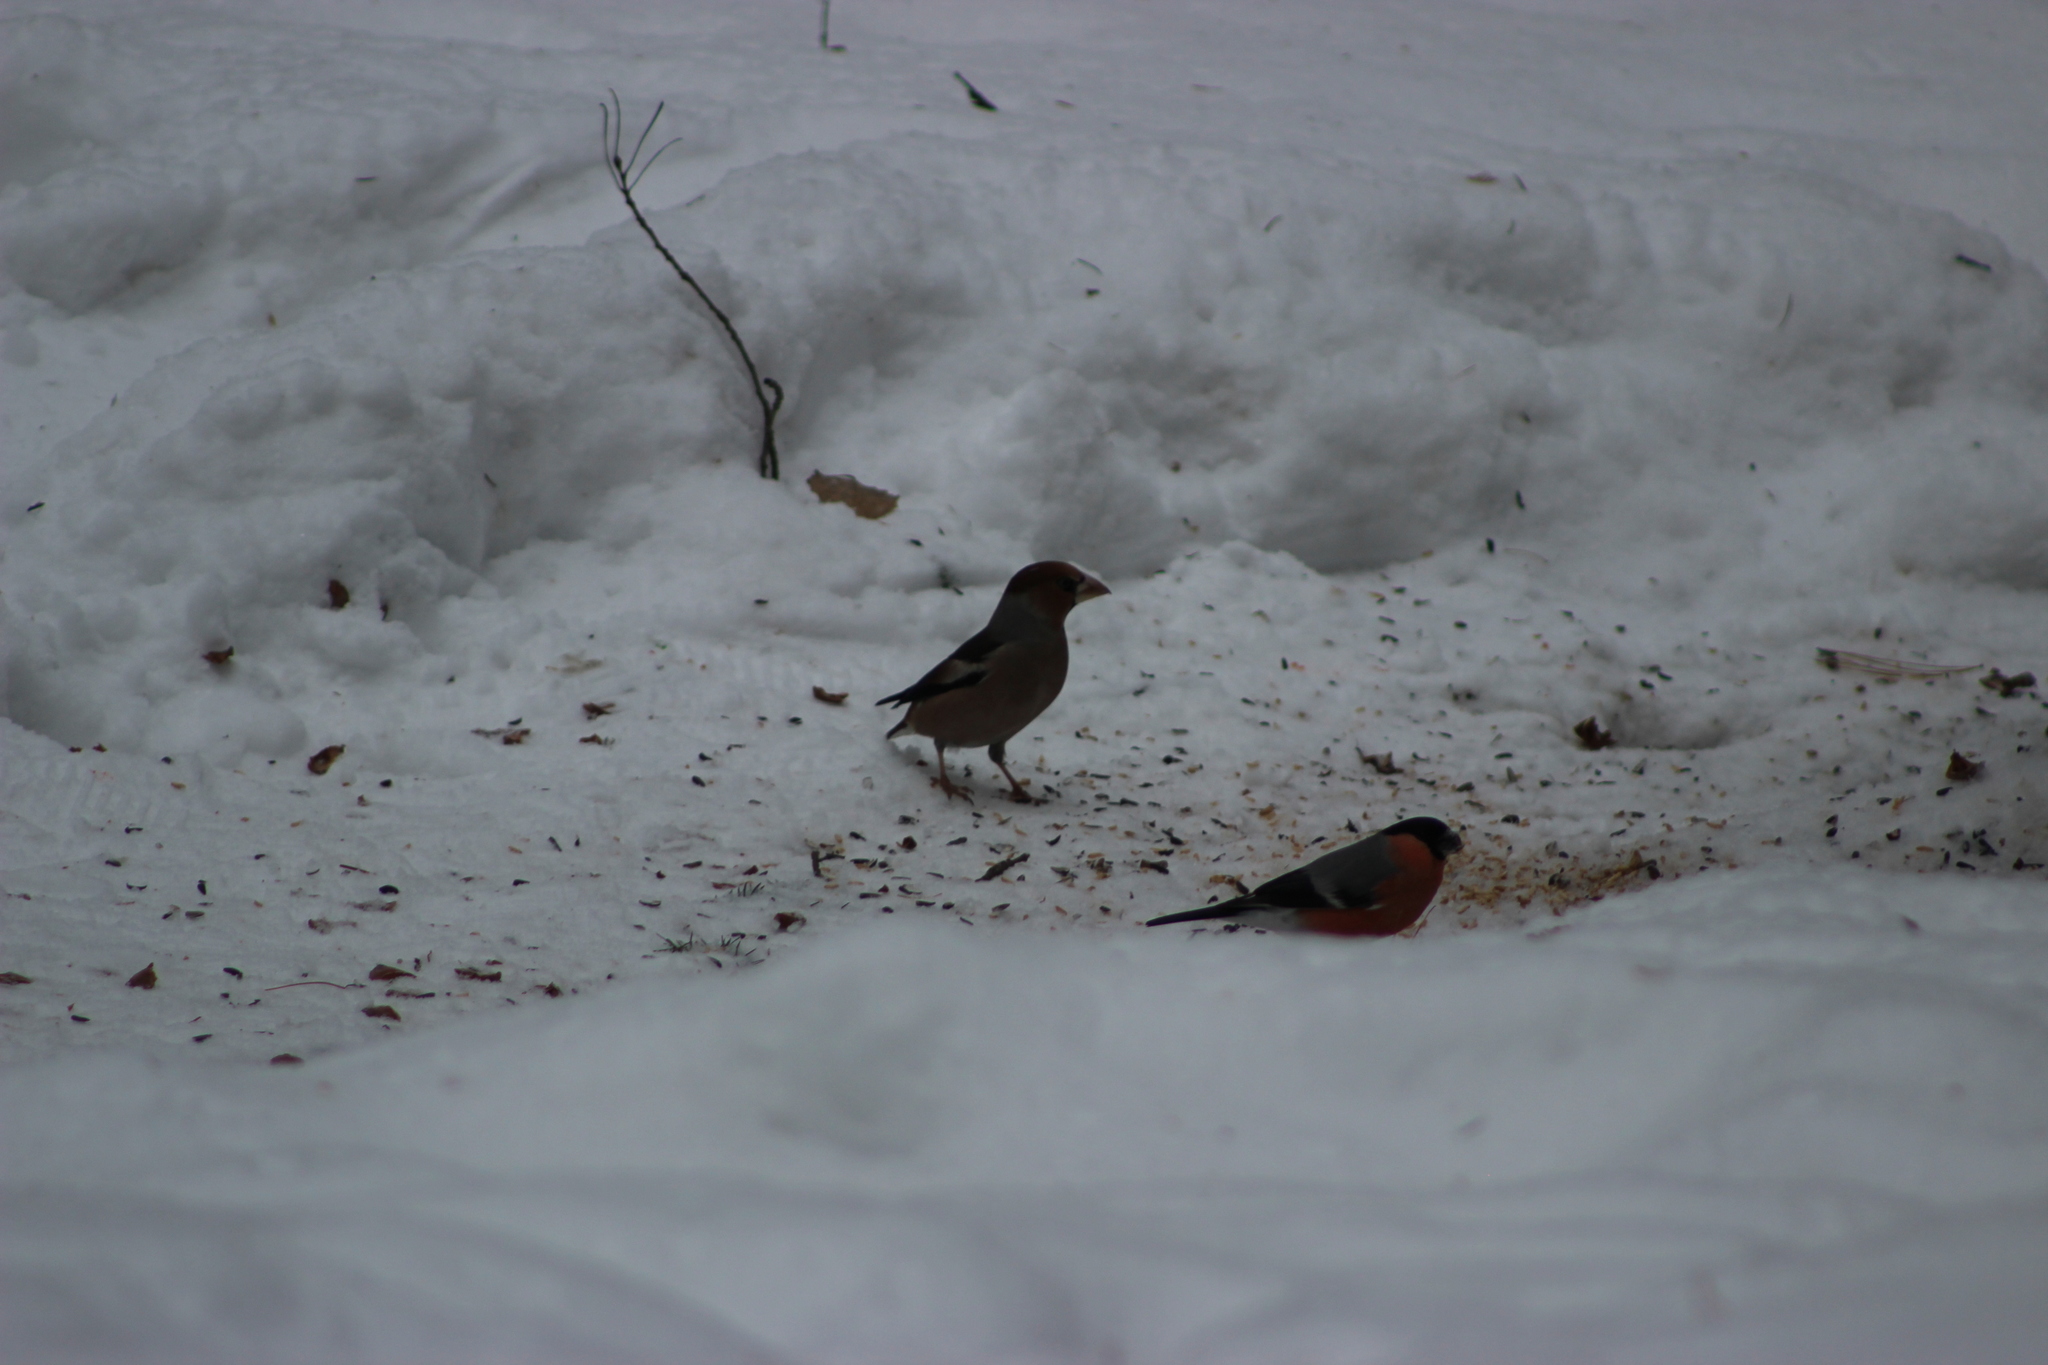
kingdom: Animalia
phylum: Chordata
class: Aves
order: Passeriformes
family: Fringillidae
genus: Coccothraustes
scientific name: Coccothraustes coccothraustes
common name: Hawfinch
